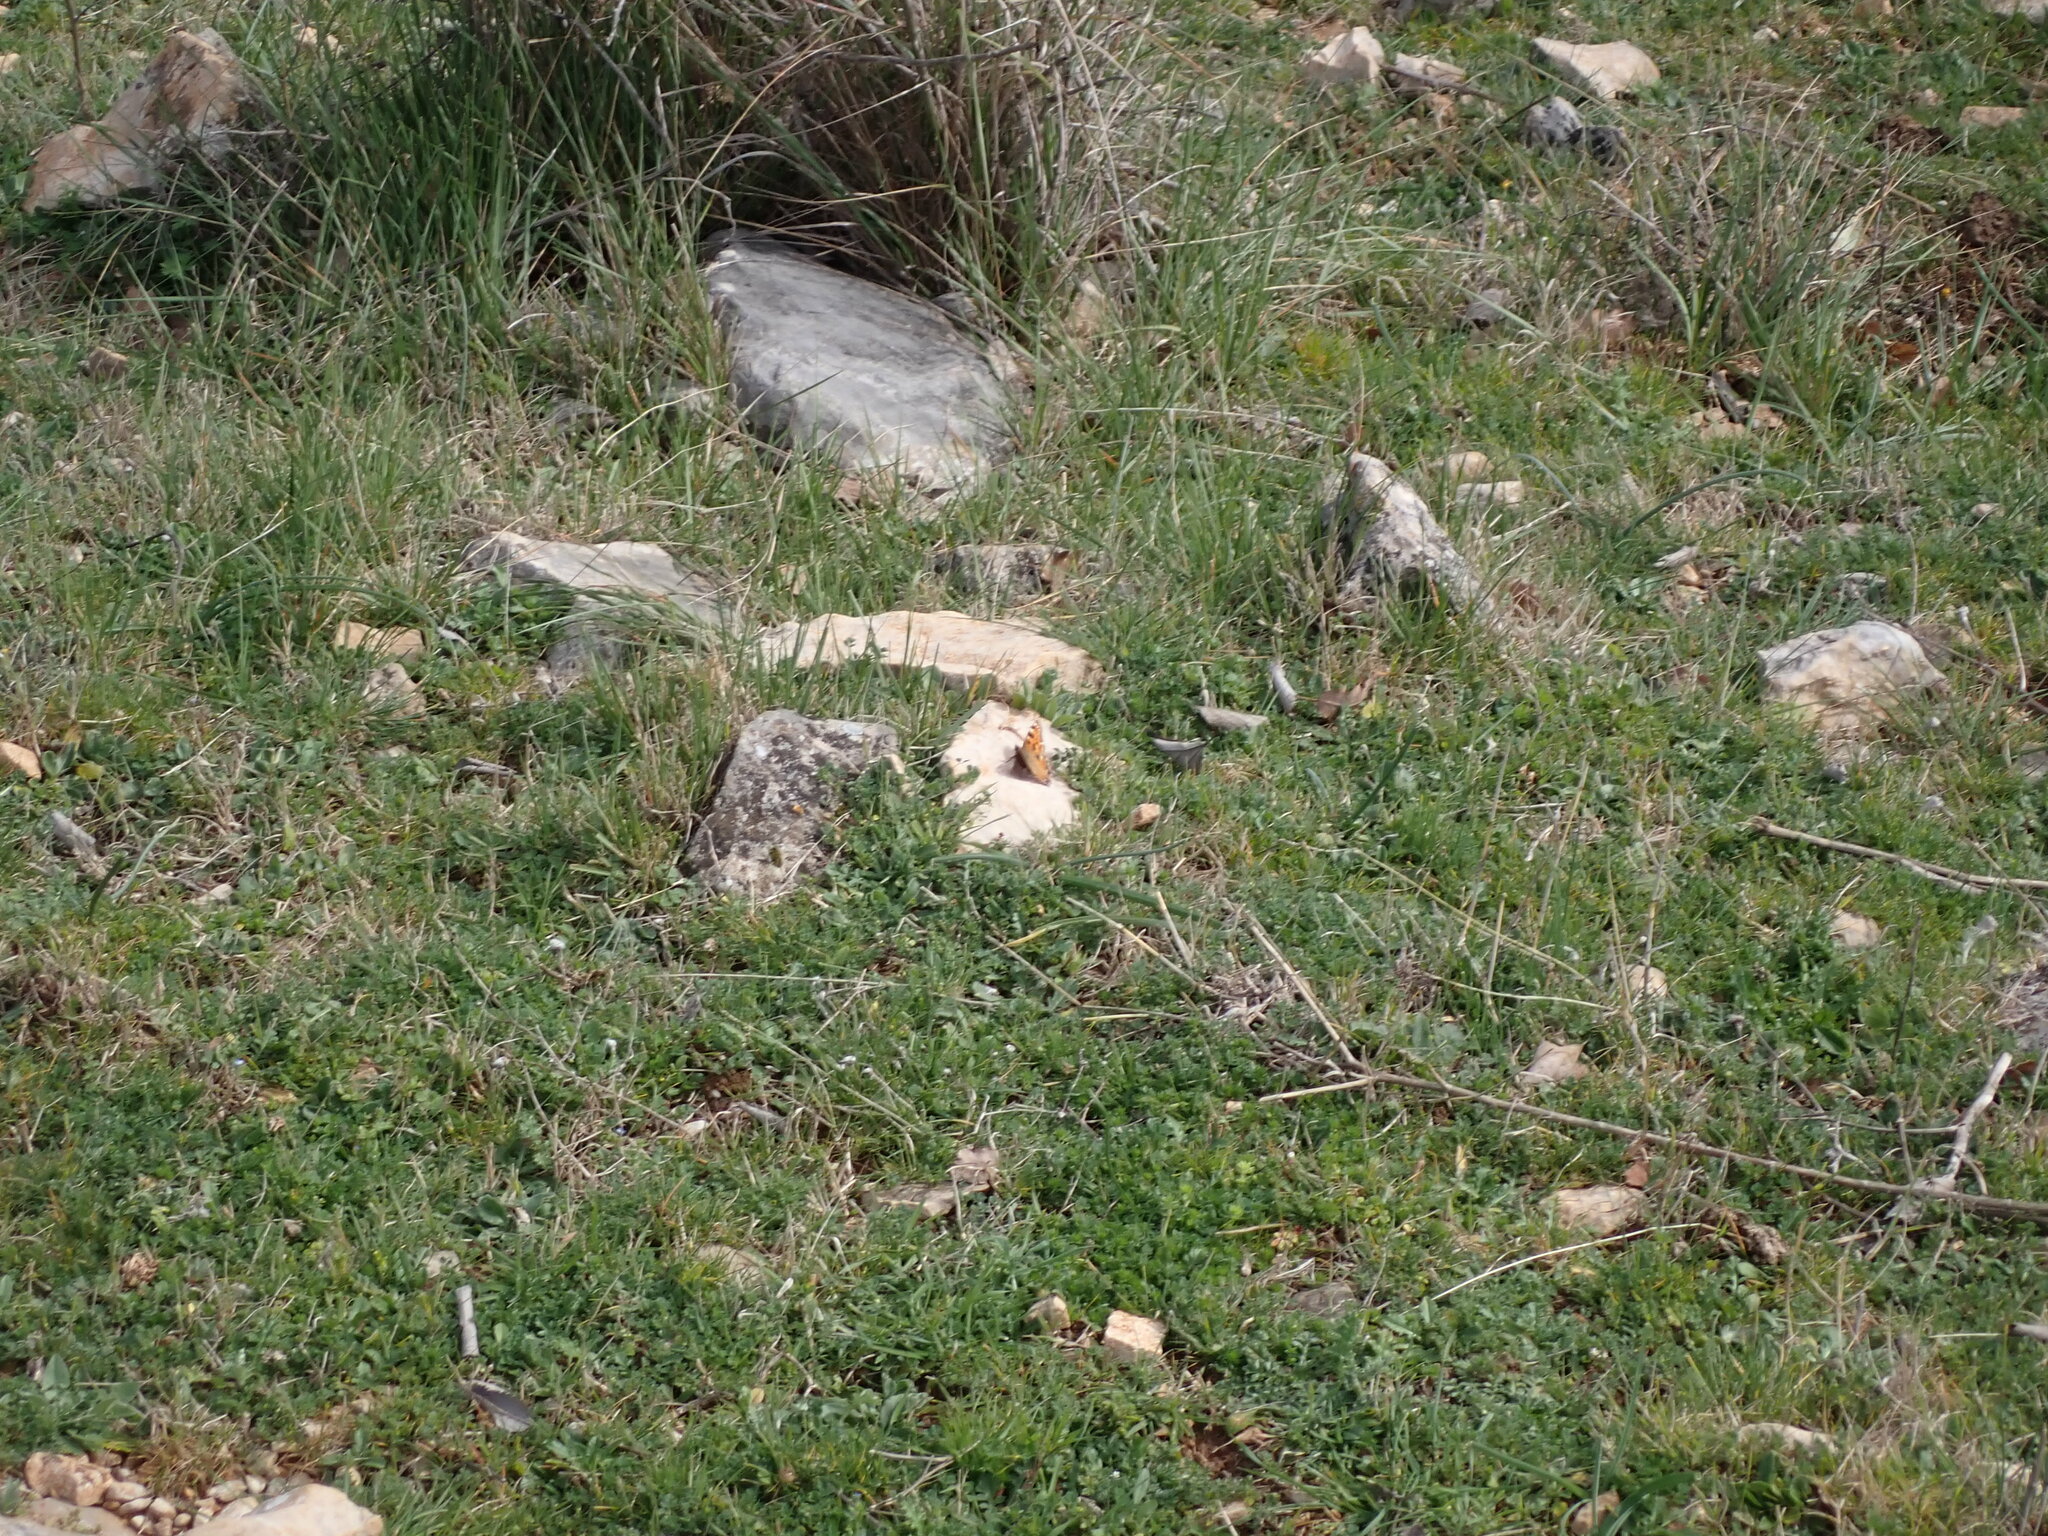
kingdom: Animalia
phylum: Arthropoda
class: Insecta
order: Lepidoptera
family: Nymphalidae
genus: Nymphalis
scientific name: Nymphalis polychloros
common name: Large tortoiseshell
